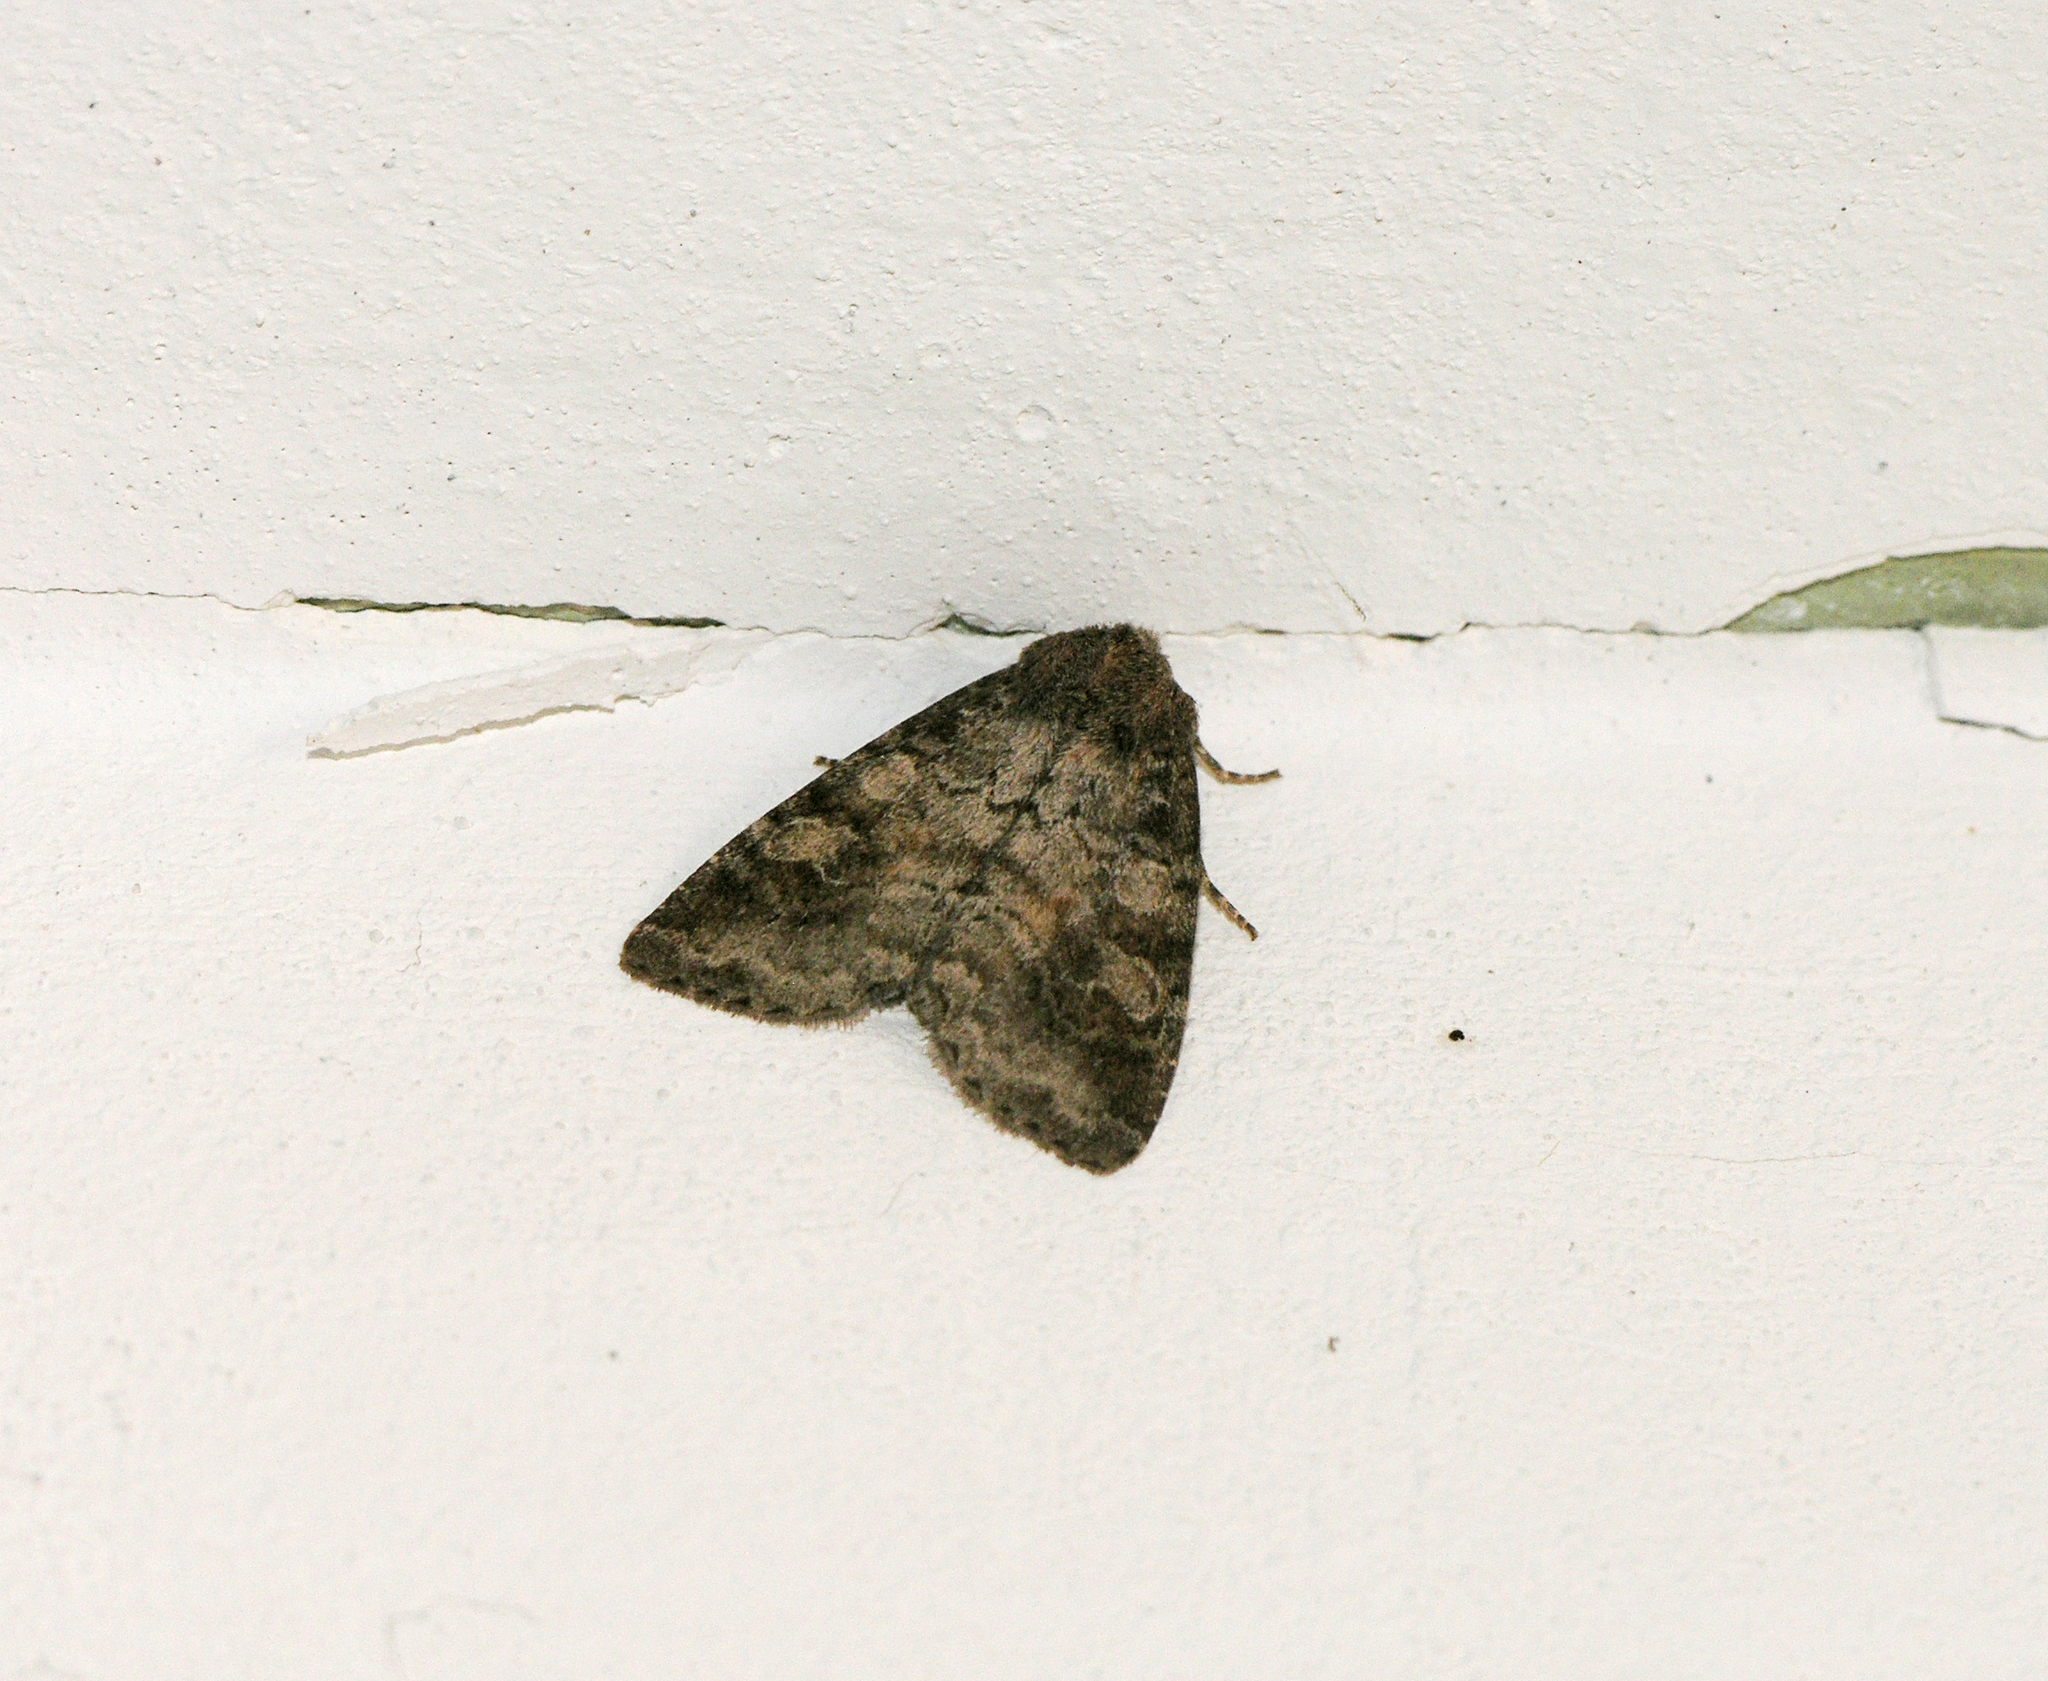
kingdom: Animalia
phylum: Arthropoda
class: Insecta
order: Lepidoptera
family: Noctuidae
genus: Parastichtis
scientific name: Parastichtis suspecta
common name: Suspected
